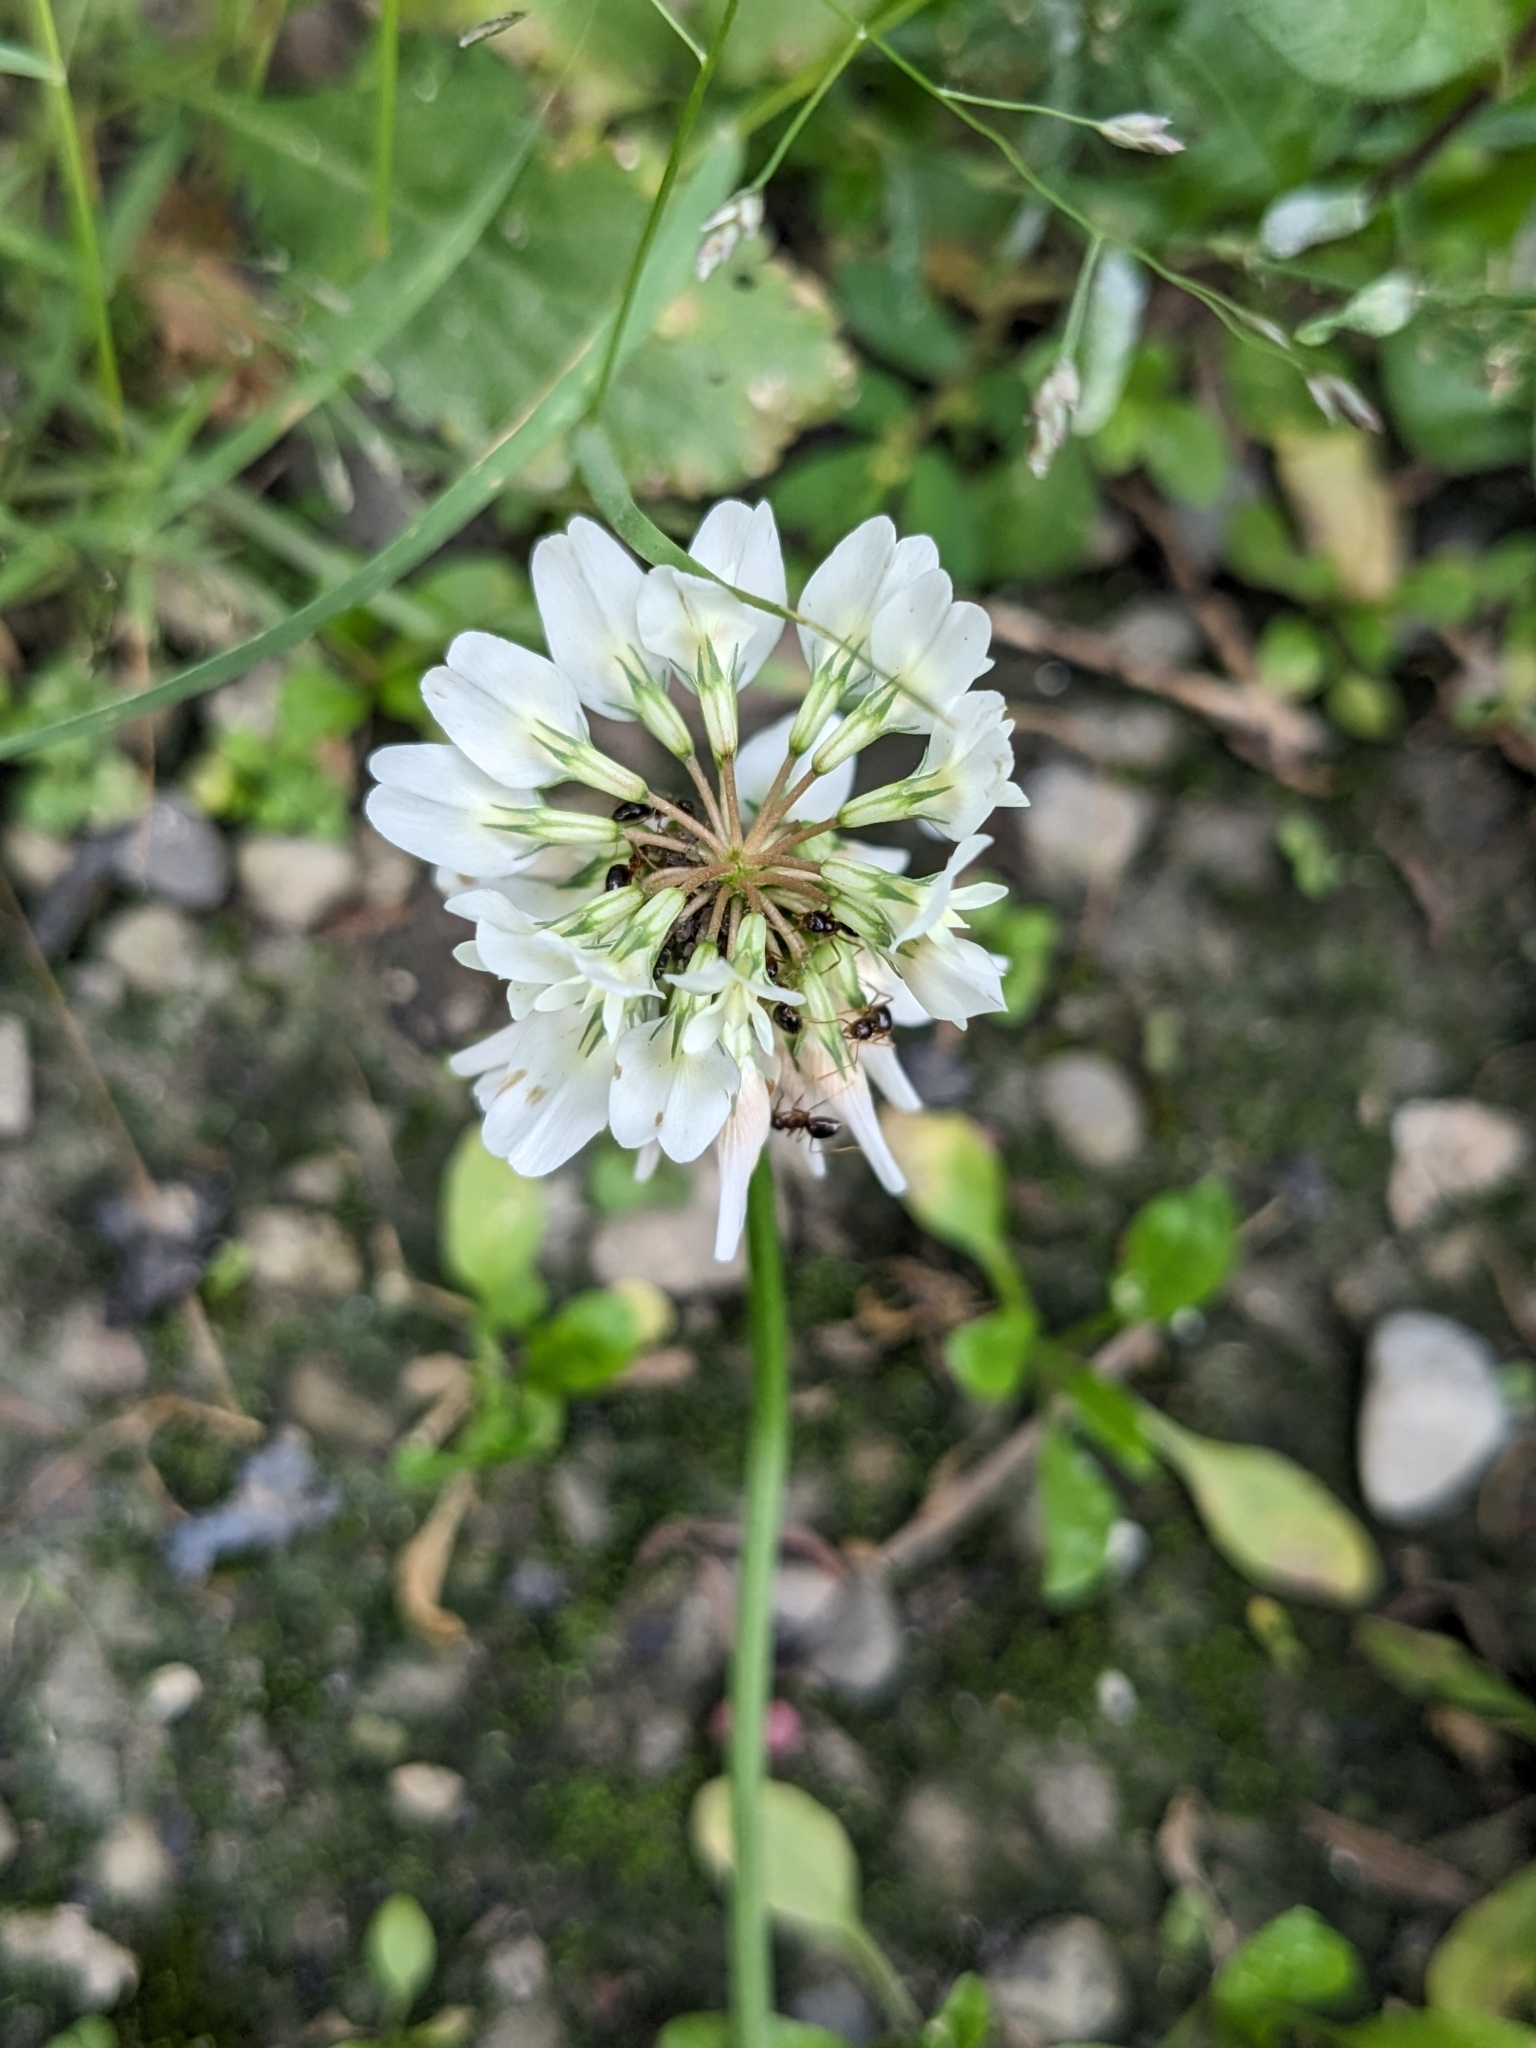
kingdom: Plantae
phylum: Tracheophyta
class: Magnoliopsida
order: Fabales
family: Fabaceae
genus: Trifolium
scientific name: Trifolium repens
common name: White clover
